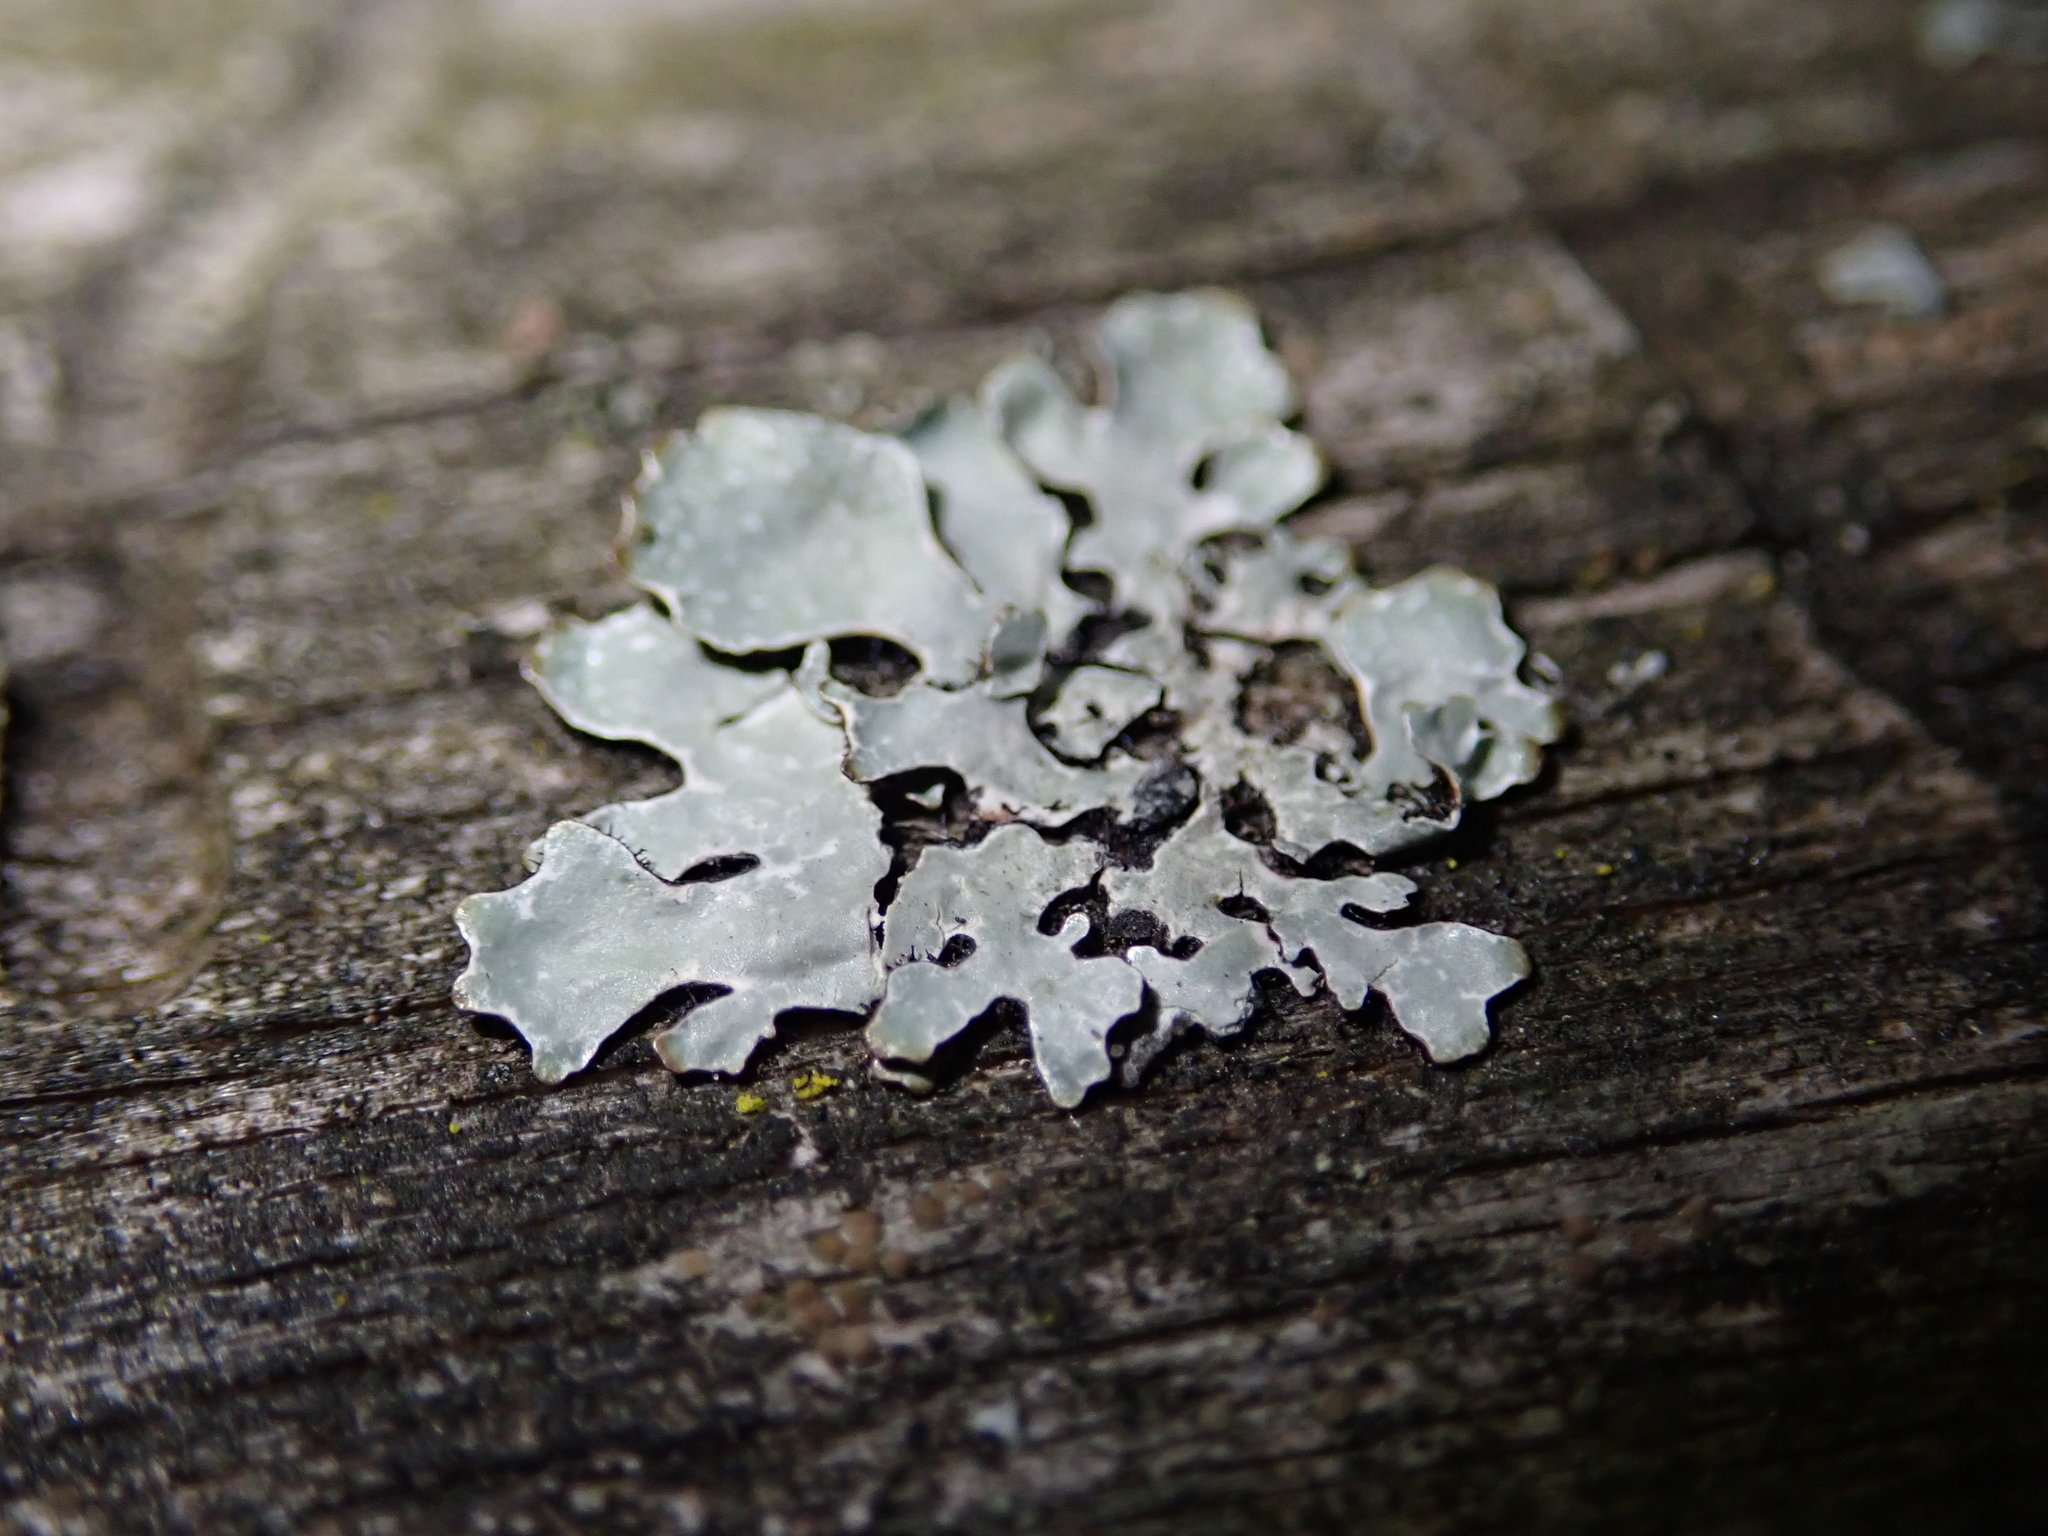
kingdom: Fungi
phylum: Ascomycota
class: Lecanoromycetes
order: Lecanorales
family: Parmeliaceae
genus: Parmelia
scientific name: Parmelia sulcata
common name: Netted shield lichen
